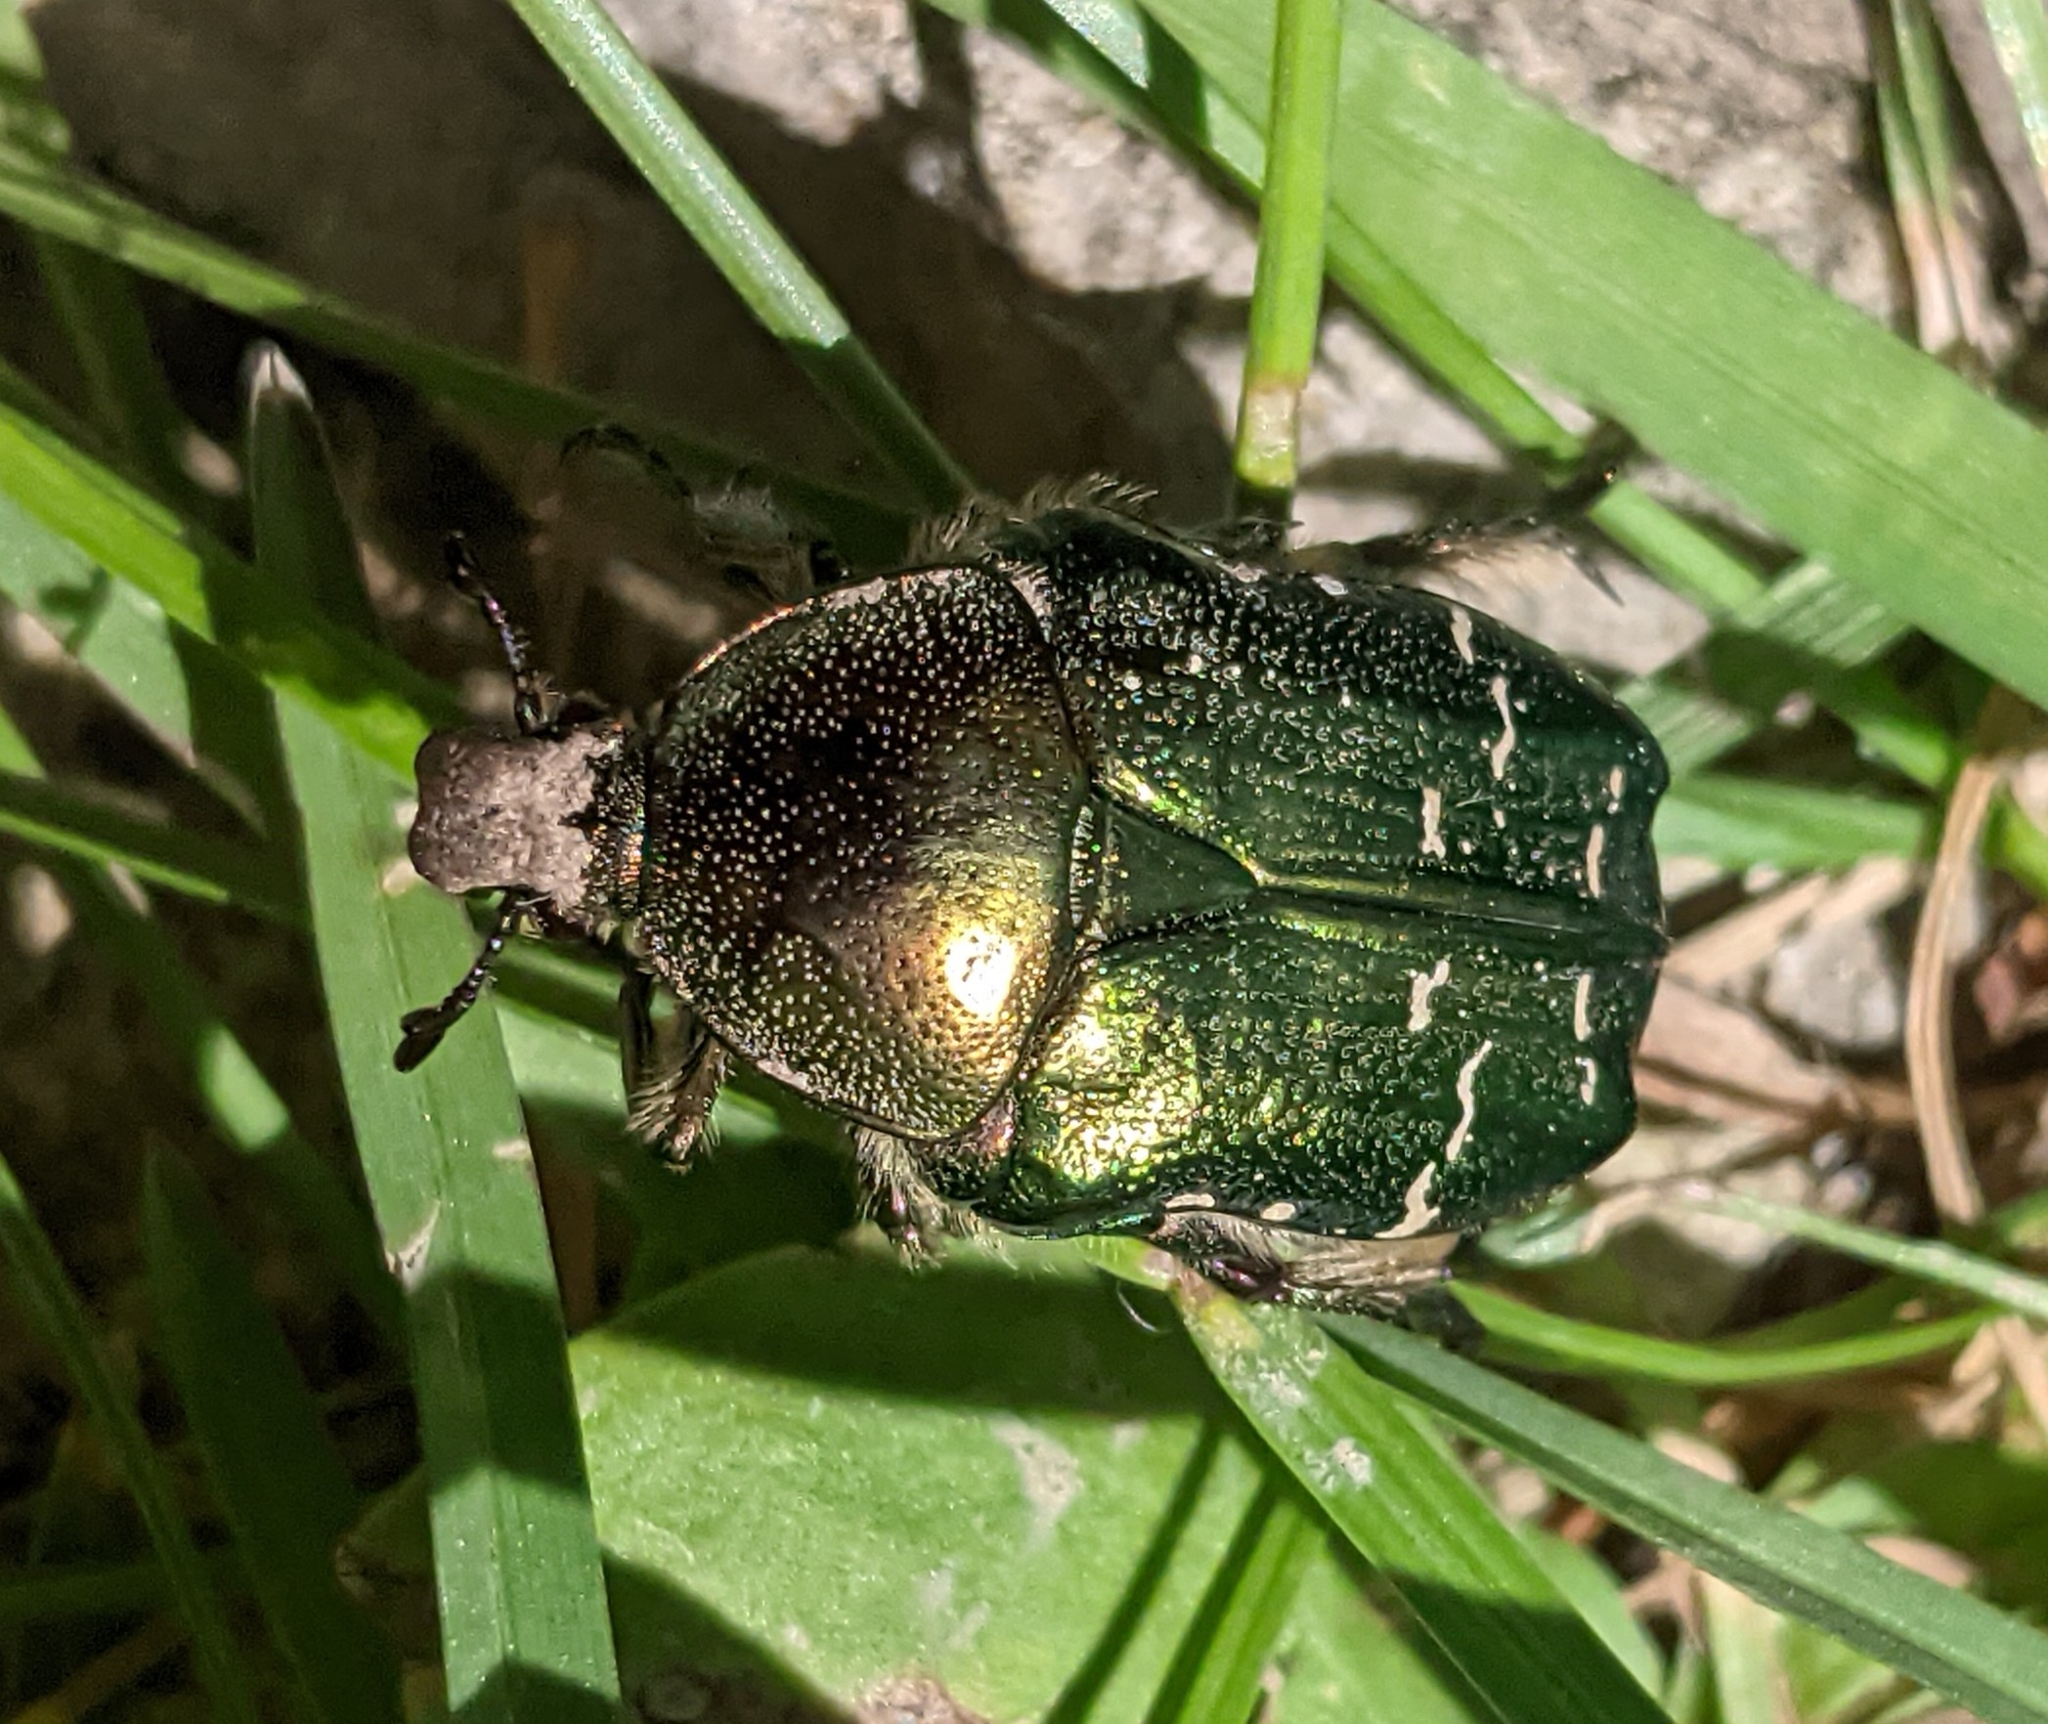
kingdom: Animalia
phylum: Arthropoda
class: Insecta
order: Coleoptera
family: Scarabaeidae
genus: Cetonia
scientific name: Cetonia aurata
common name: Rose chafer
